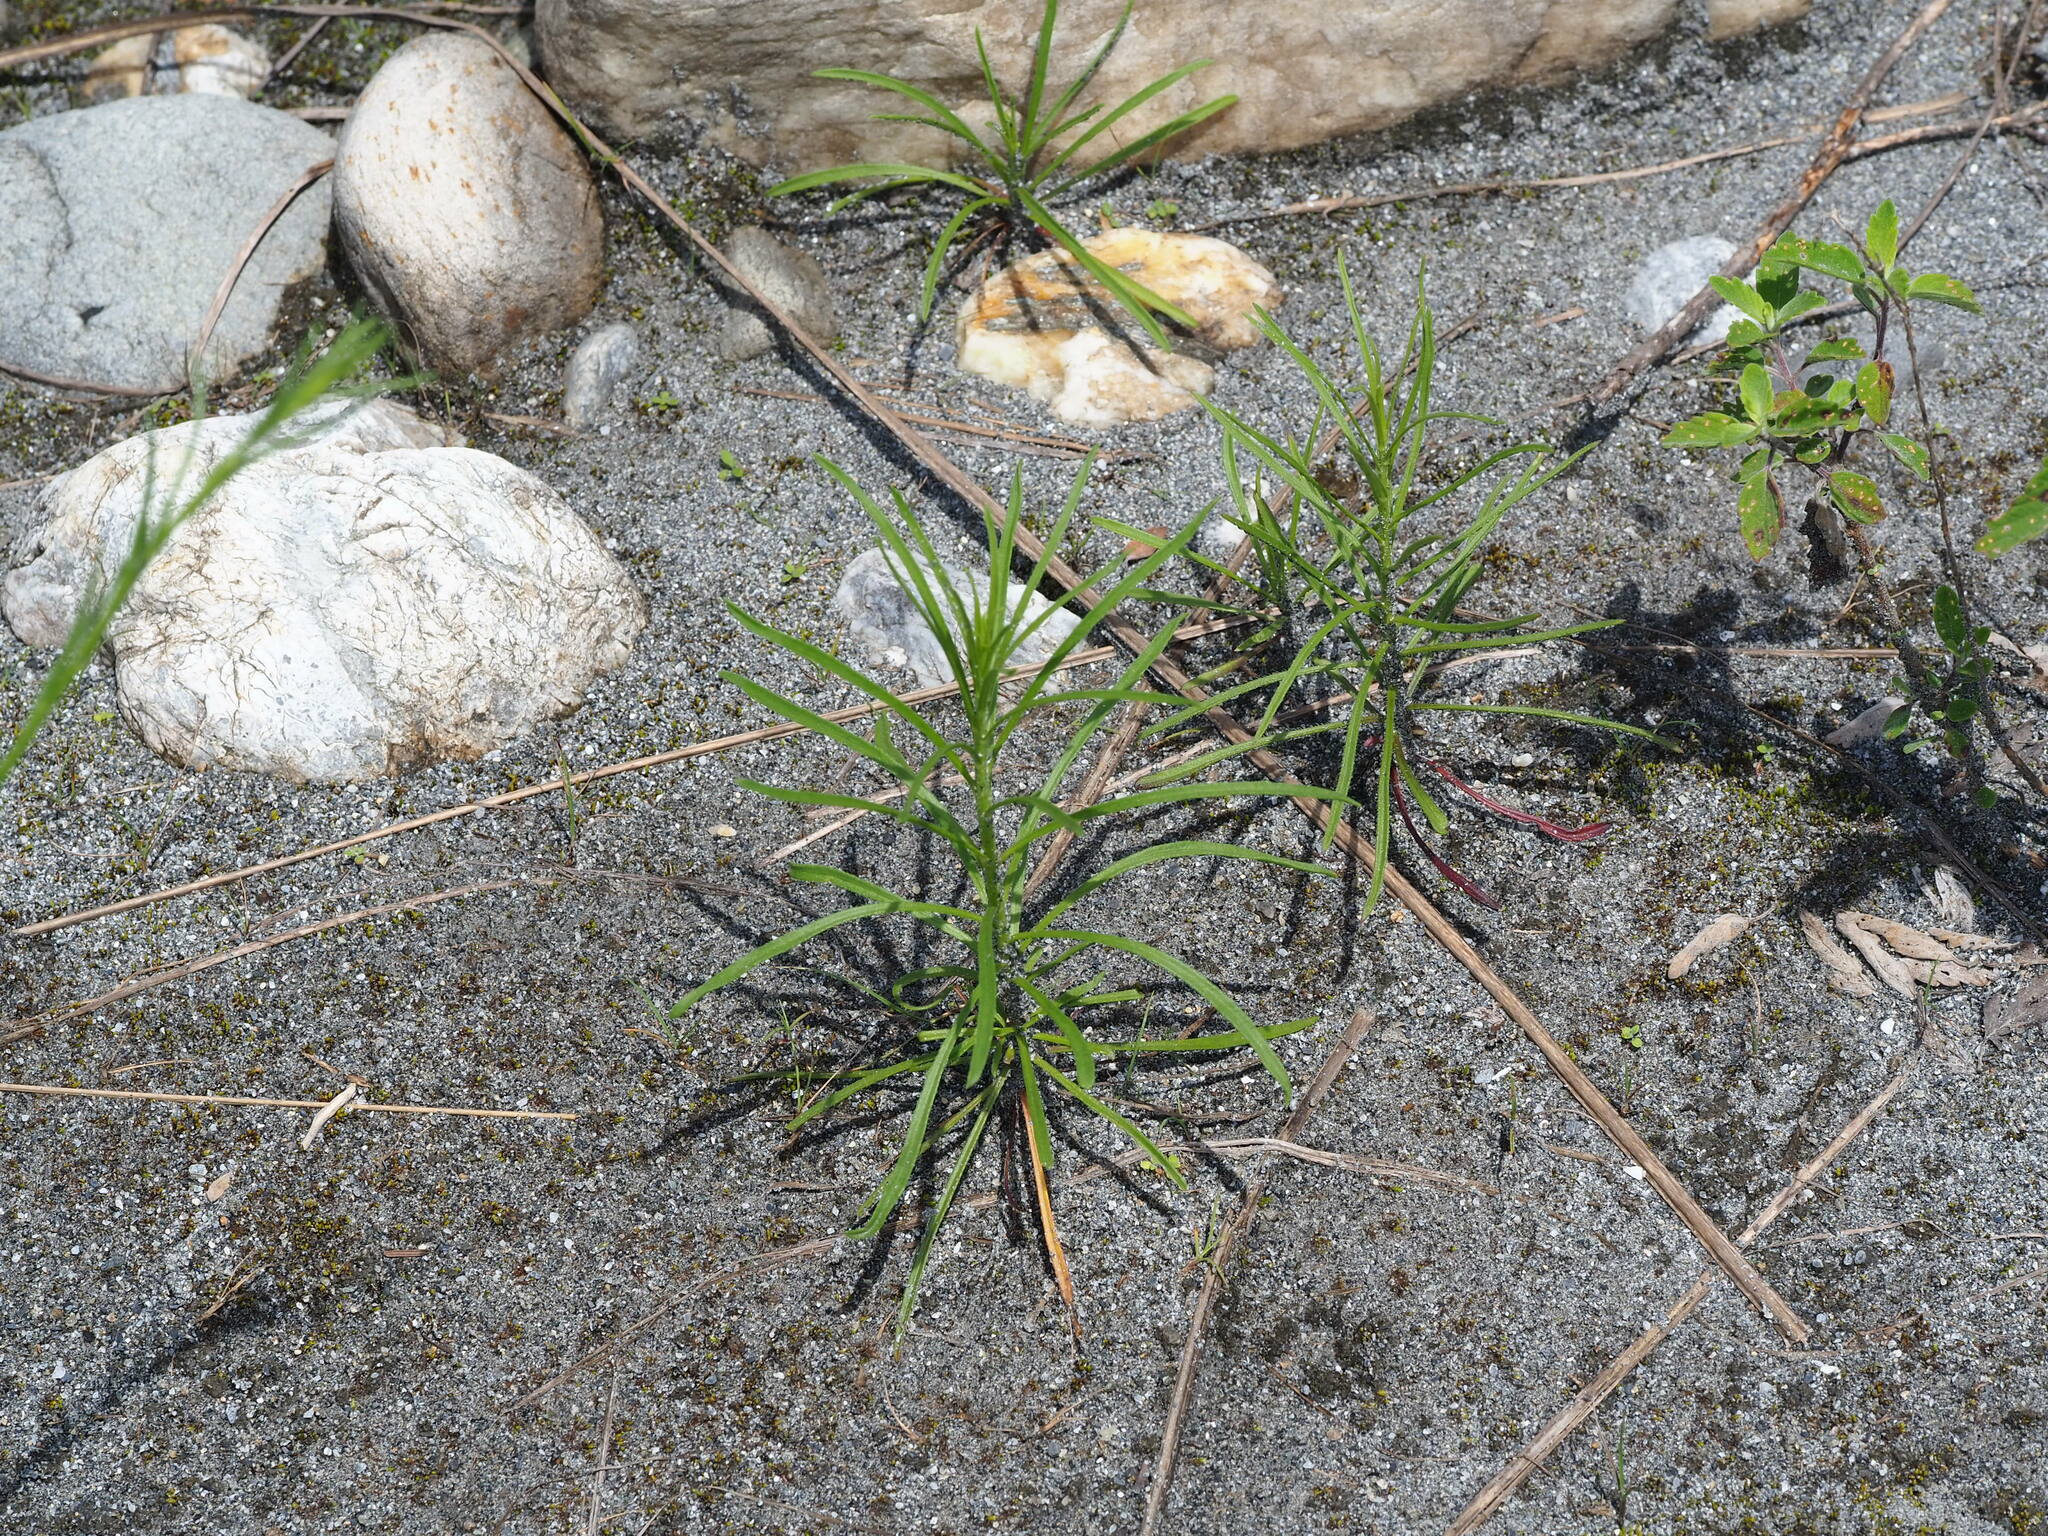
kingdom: Plantae
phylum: Tracheophyta
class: Magnoliopsida
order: Asterales
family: Asteraceae
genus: Heteropappus
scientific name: Heteropappus altaicus
